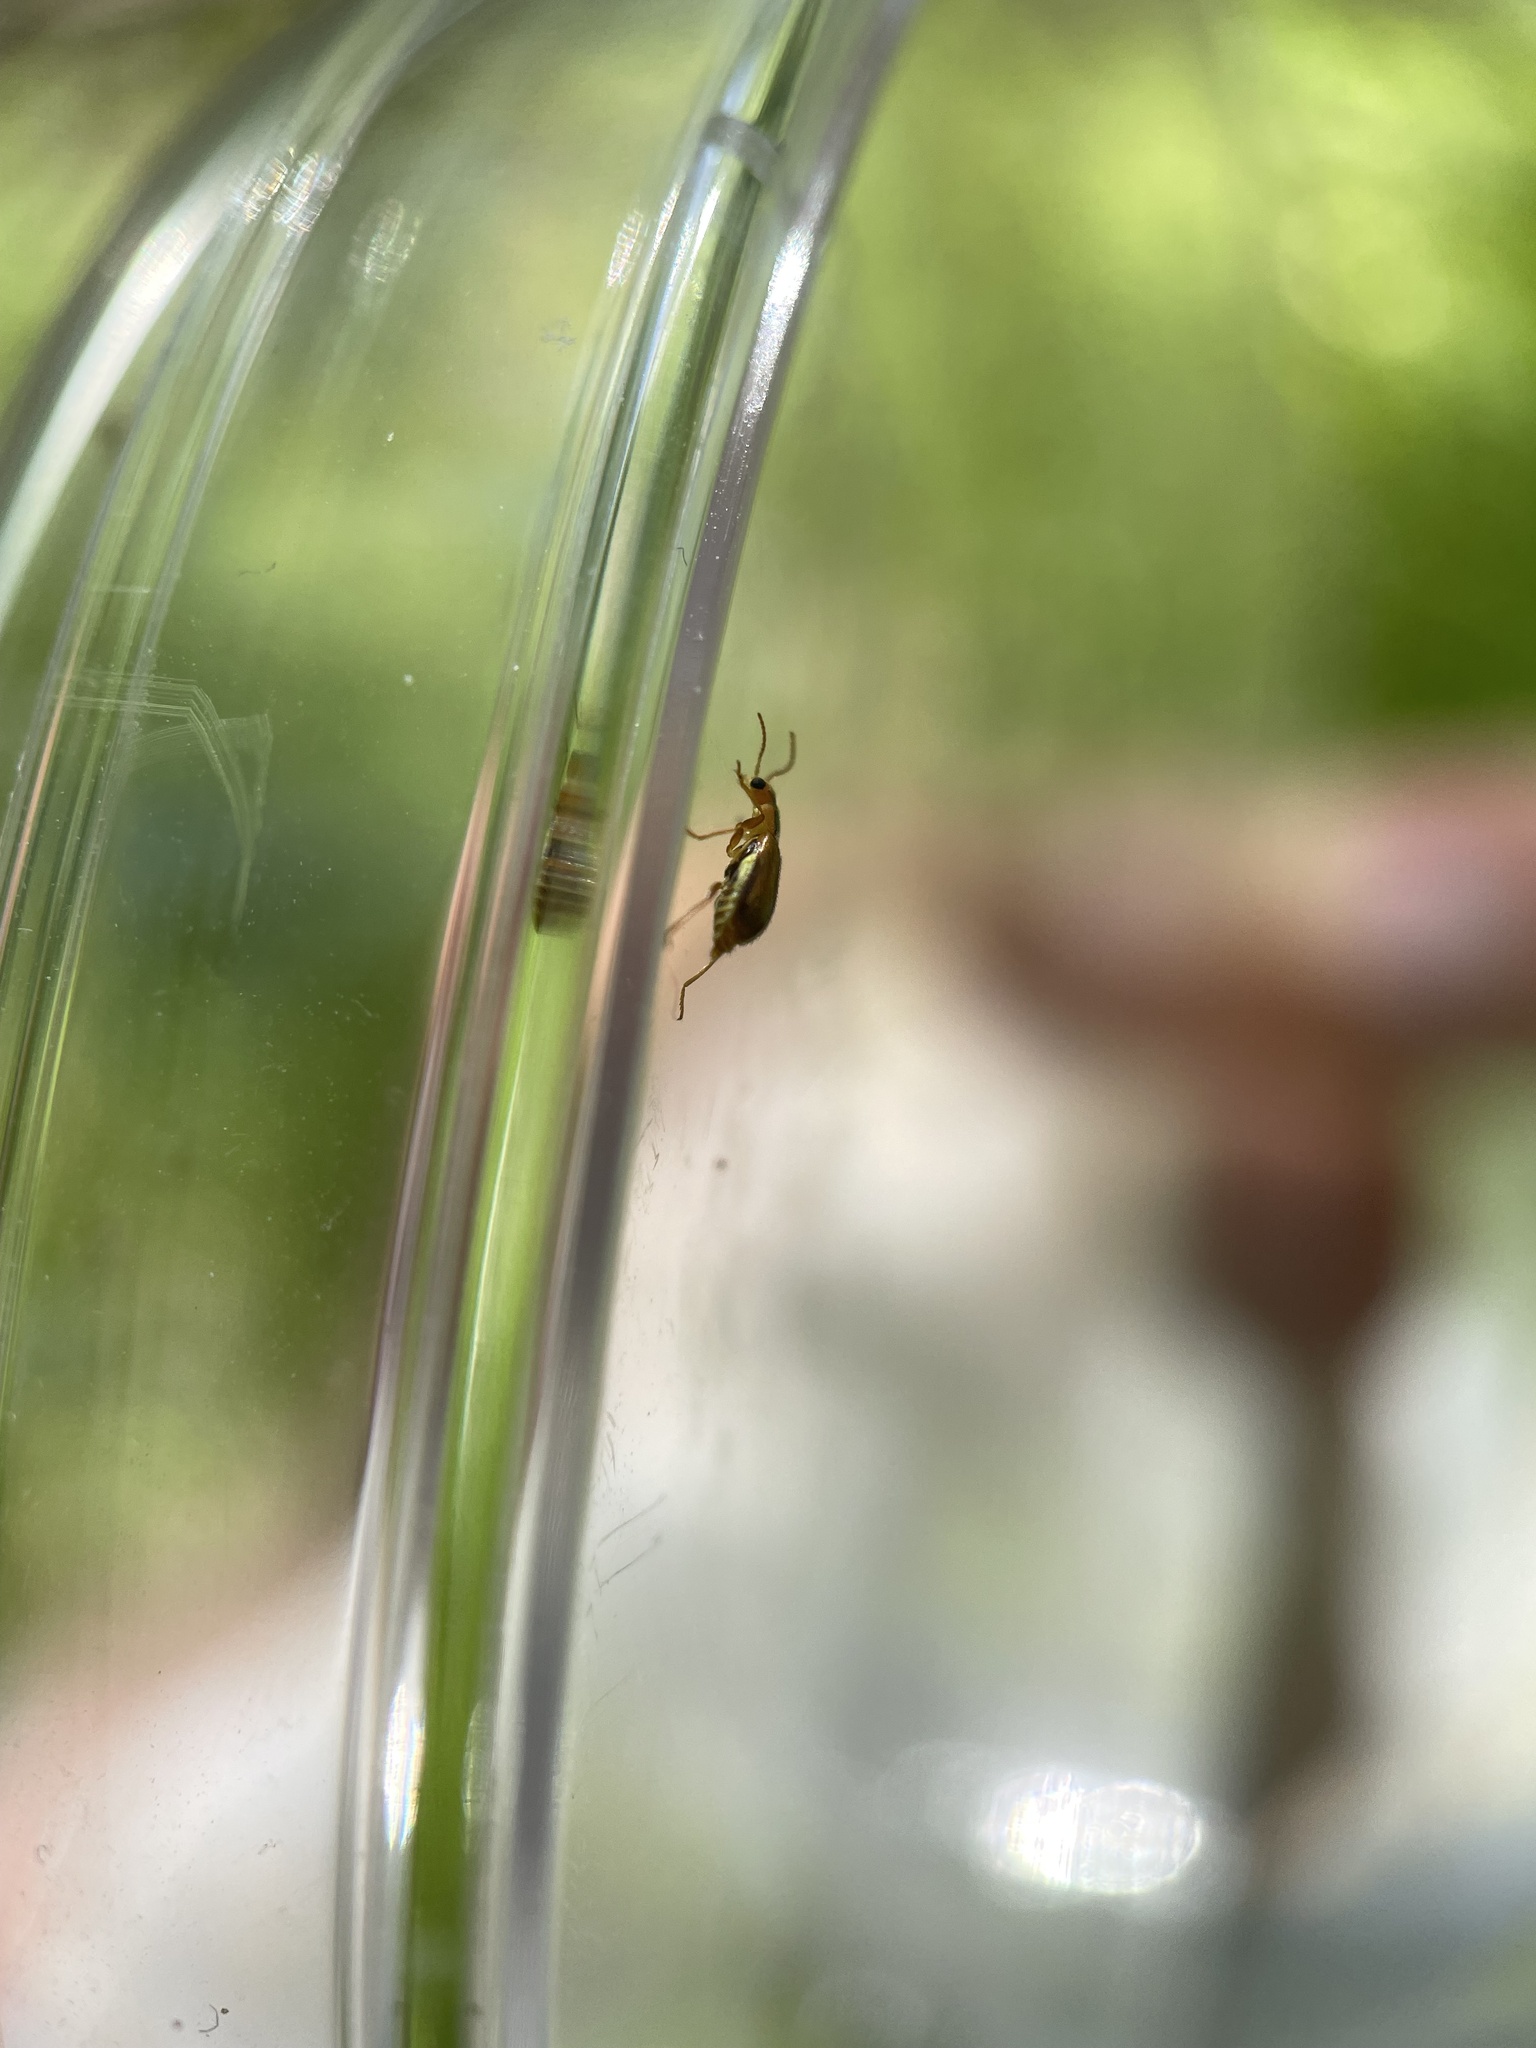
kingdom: Animalia
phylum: Arthropoda
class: Insecta
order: Coleoptera
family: Malachiidae
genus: Attalus
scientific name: Attalus
